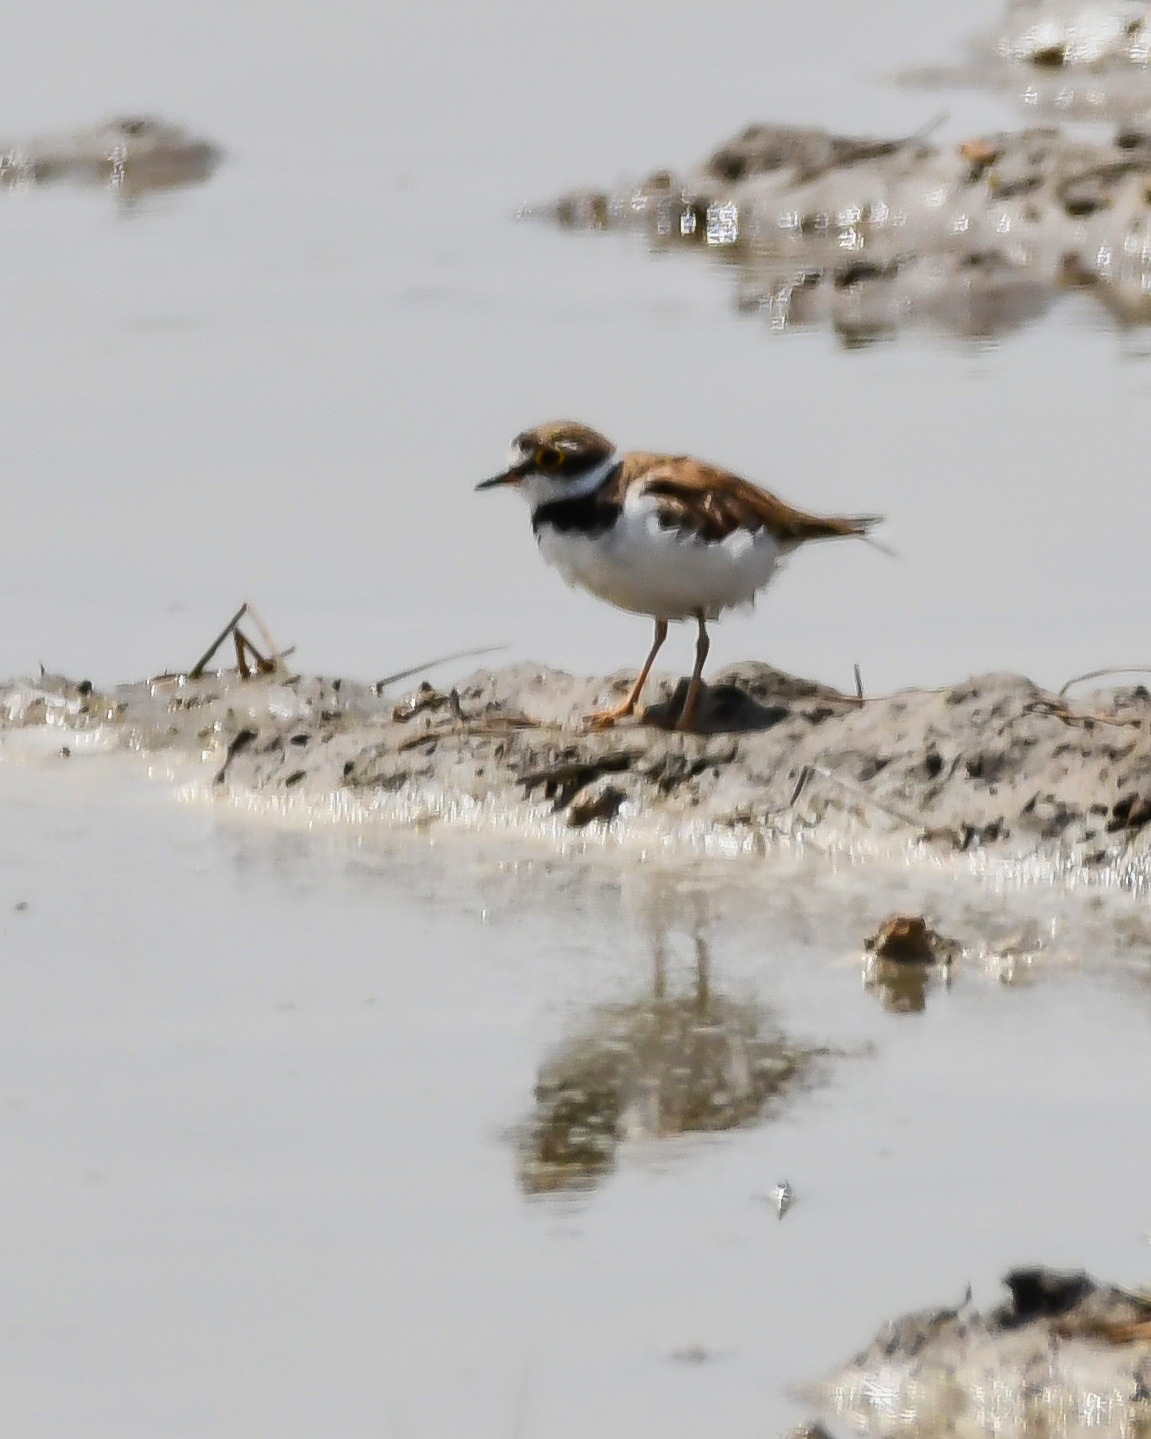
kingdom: Animalia
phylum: Chordata
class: Aves
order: Charadriiformes
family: Charadriidae
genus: Charadrius
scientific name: Charadrius dubius
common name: Little ringed plover
